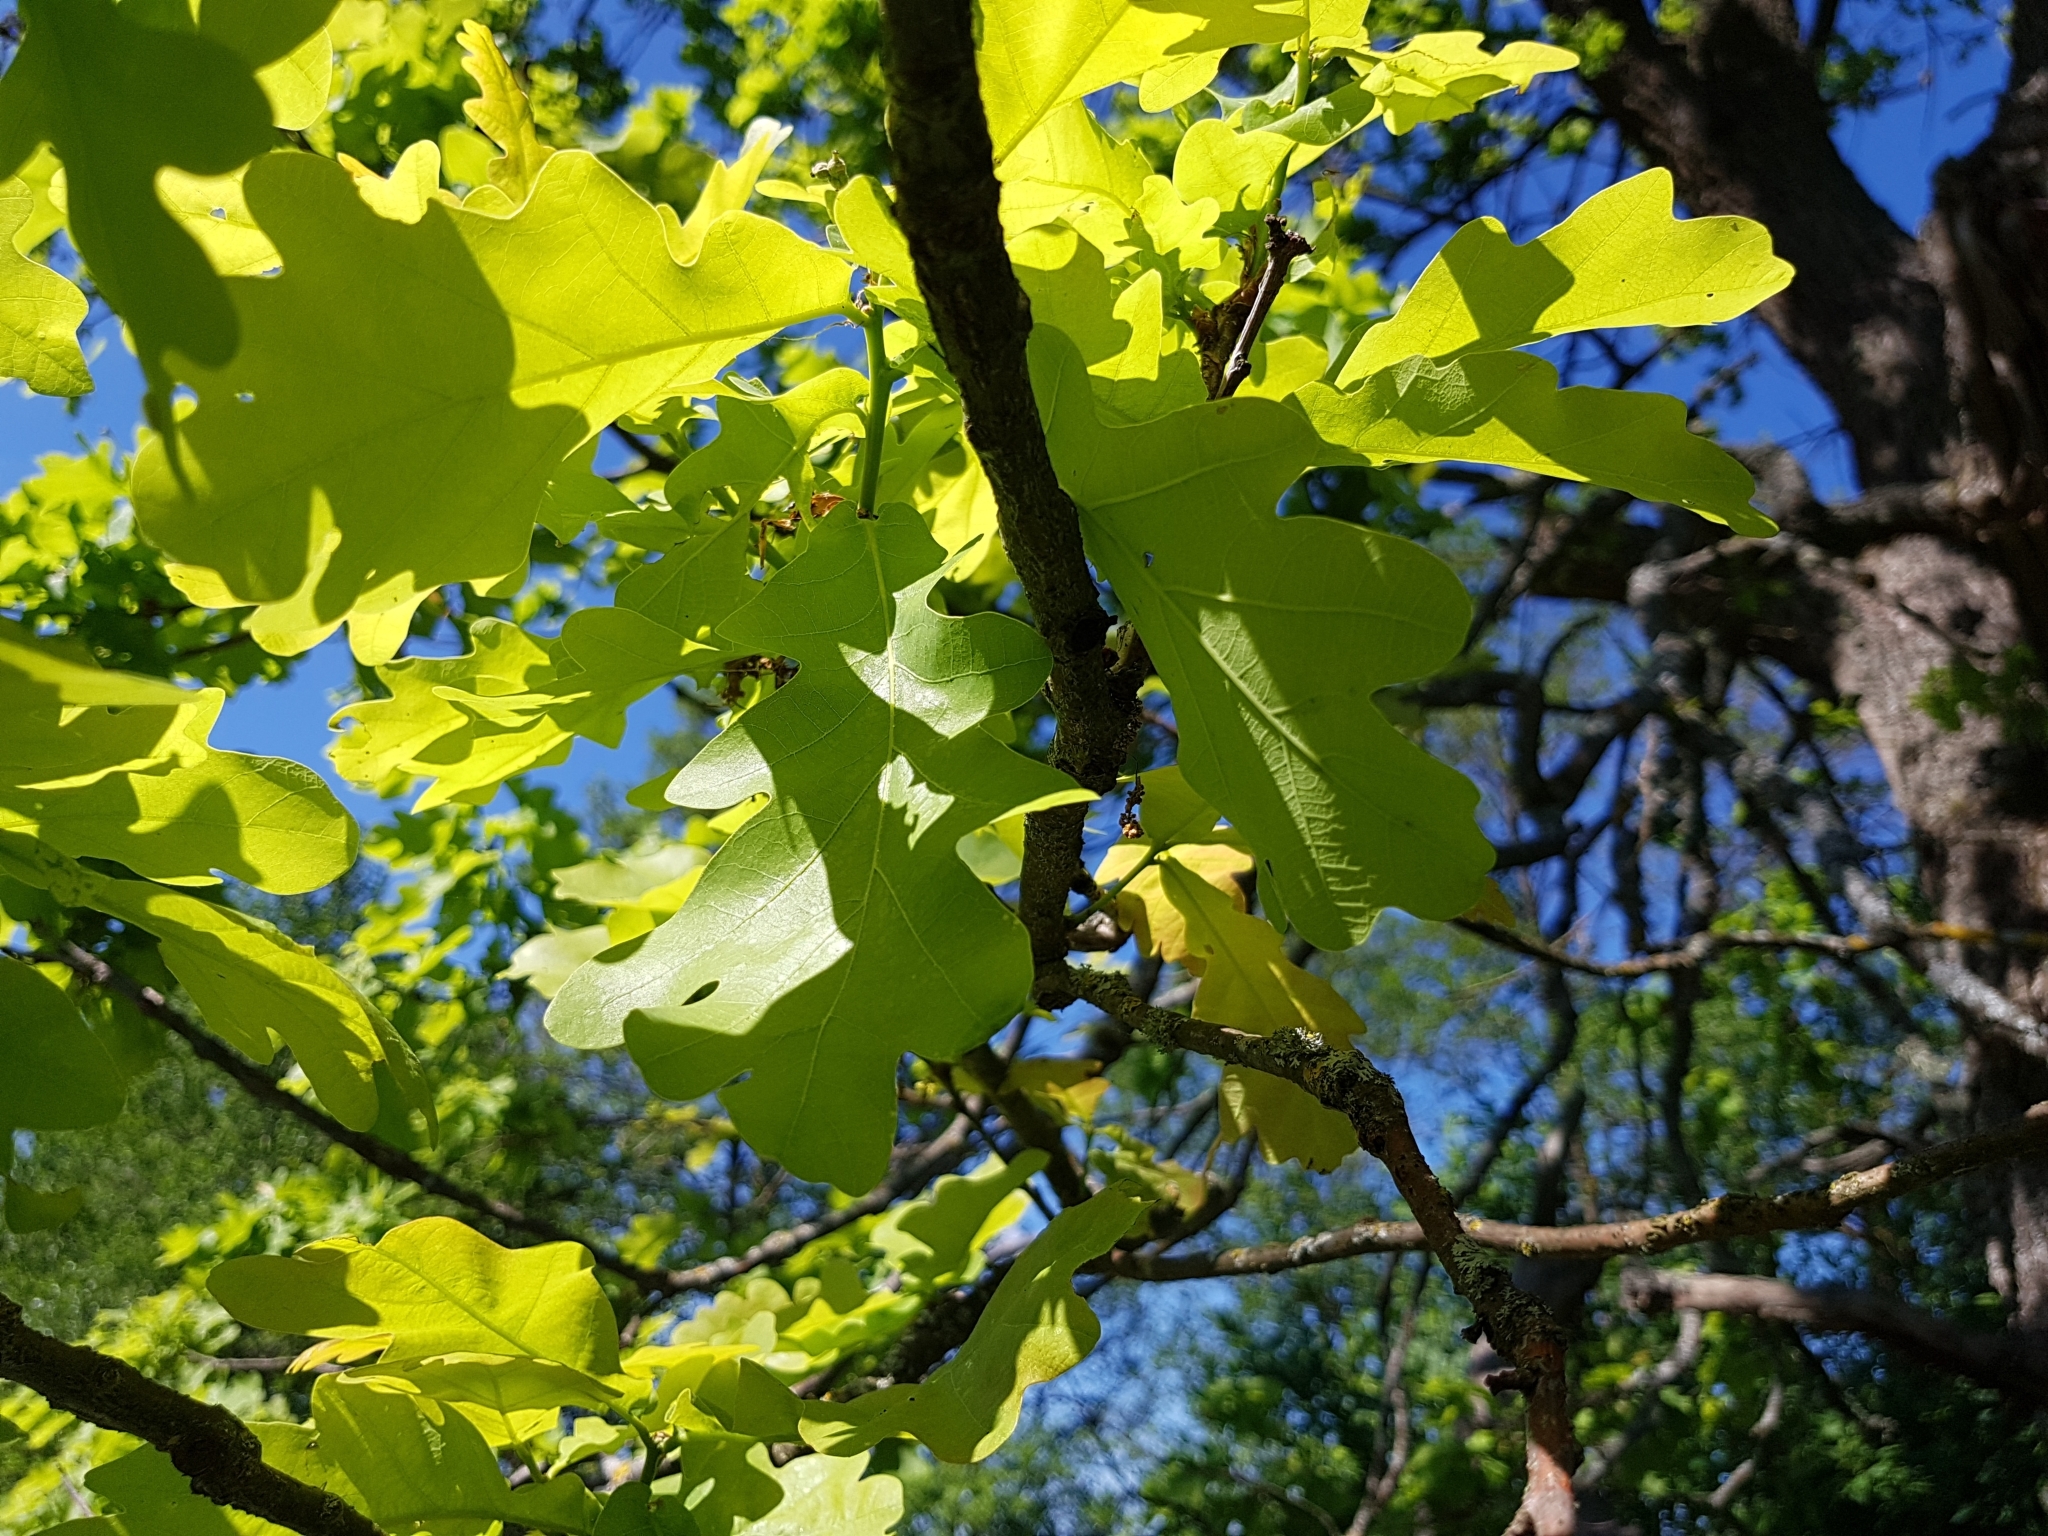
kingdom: Plantae
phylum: Tracheophyta
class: Magnoliopsida
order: Fagales
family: Fagaceae
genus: Quercus
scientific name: Quercus robur
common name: Pedunculate oak
